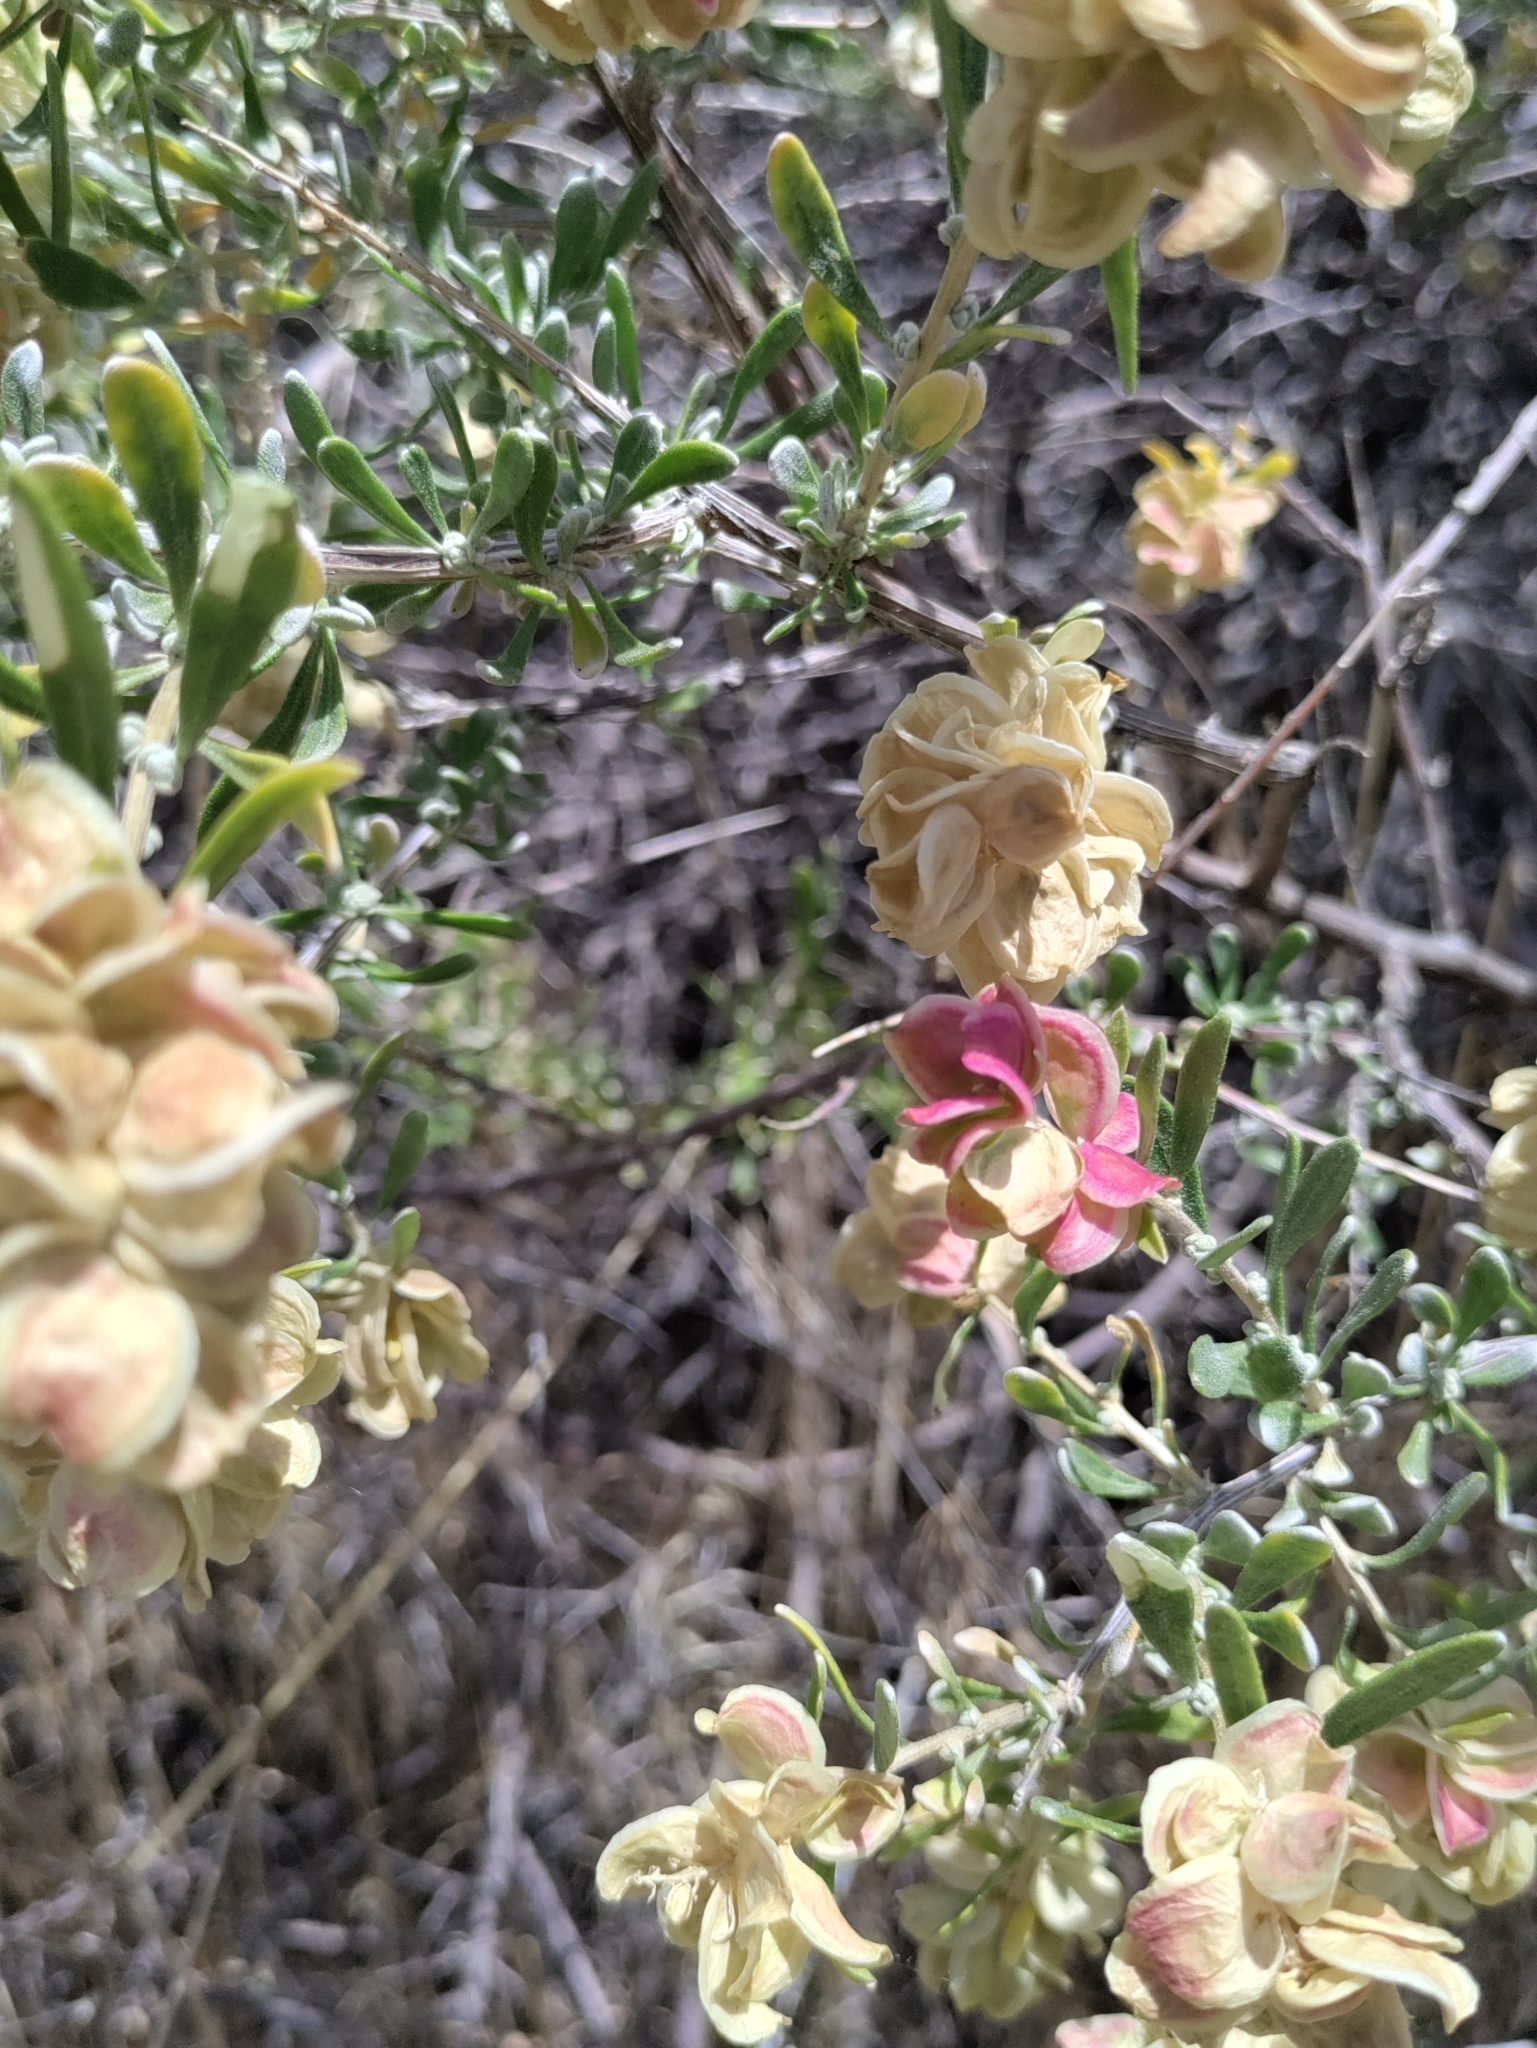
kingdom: Plantae
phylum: Tracheophyta
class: Magnoliopsida
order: Caryophyllales
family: Amaranthaceae
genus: Grayia
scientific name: Grayia spinosa
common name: Spiny hopsage
